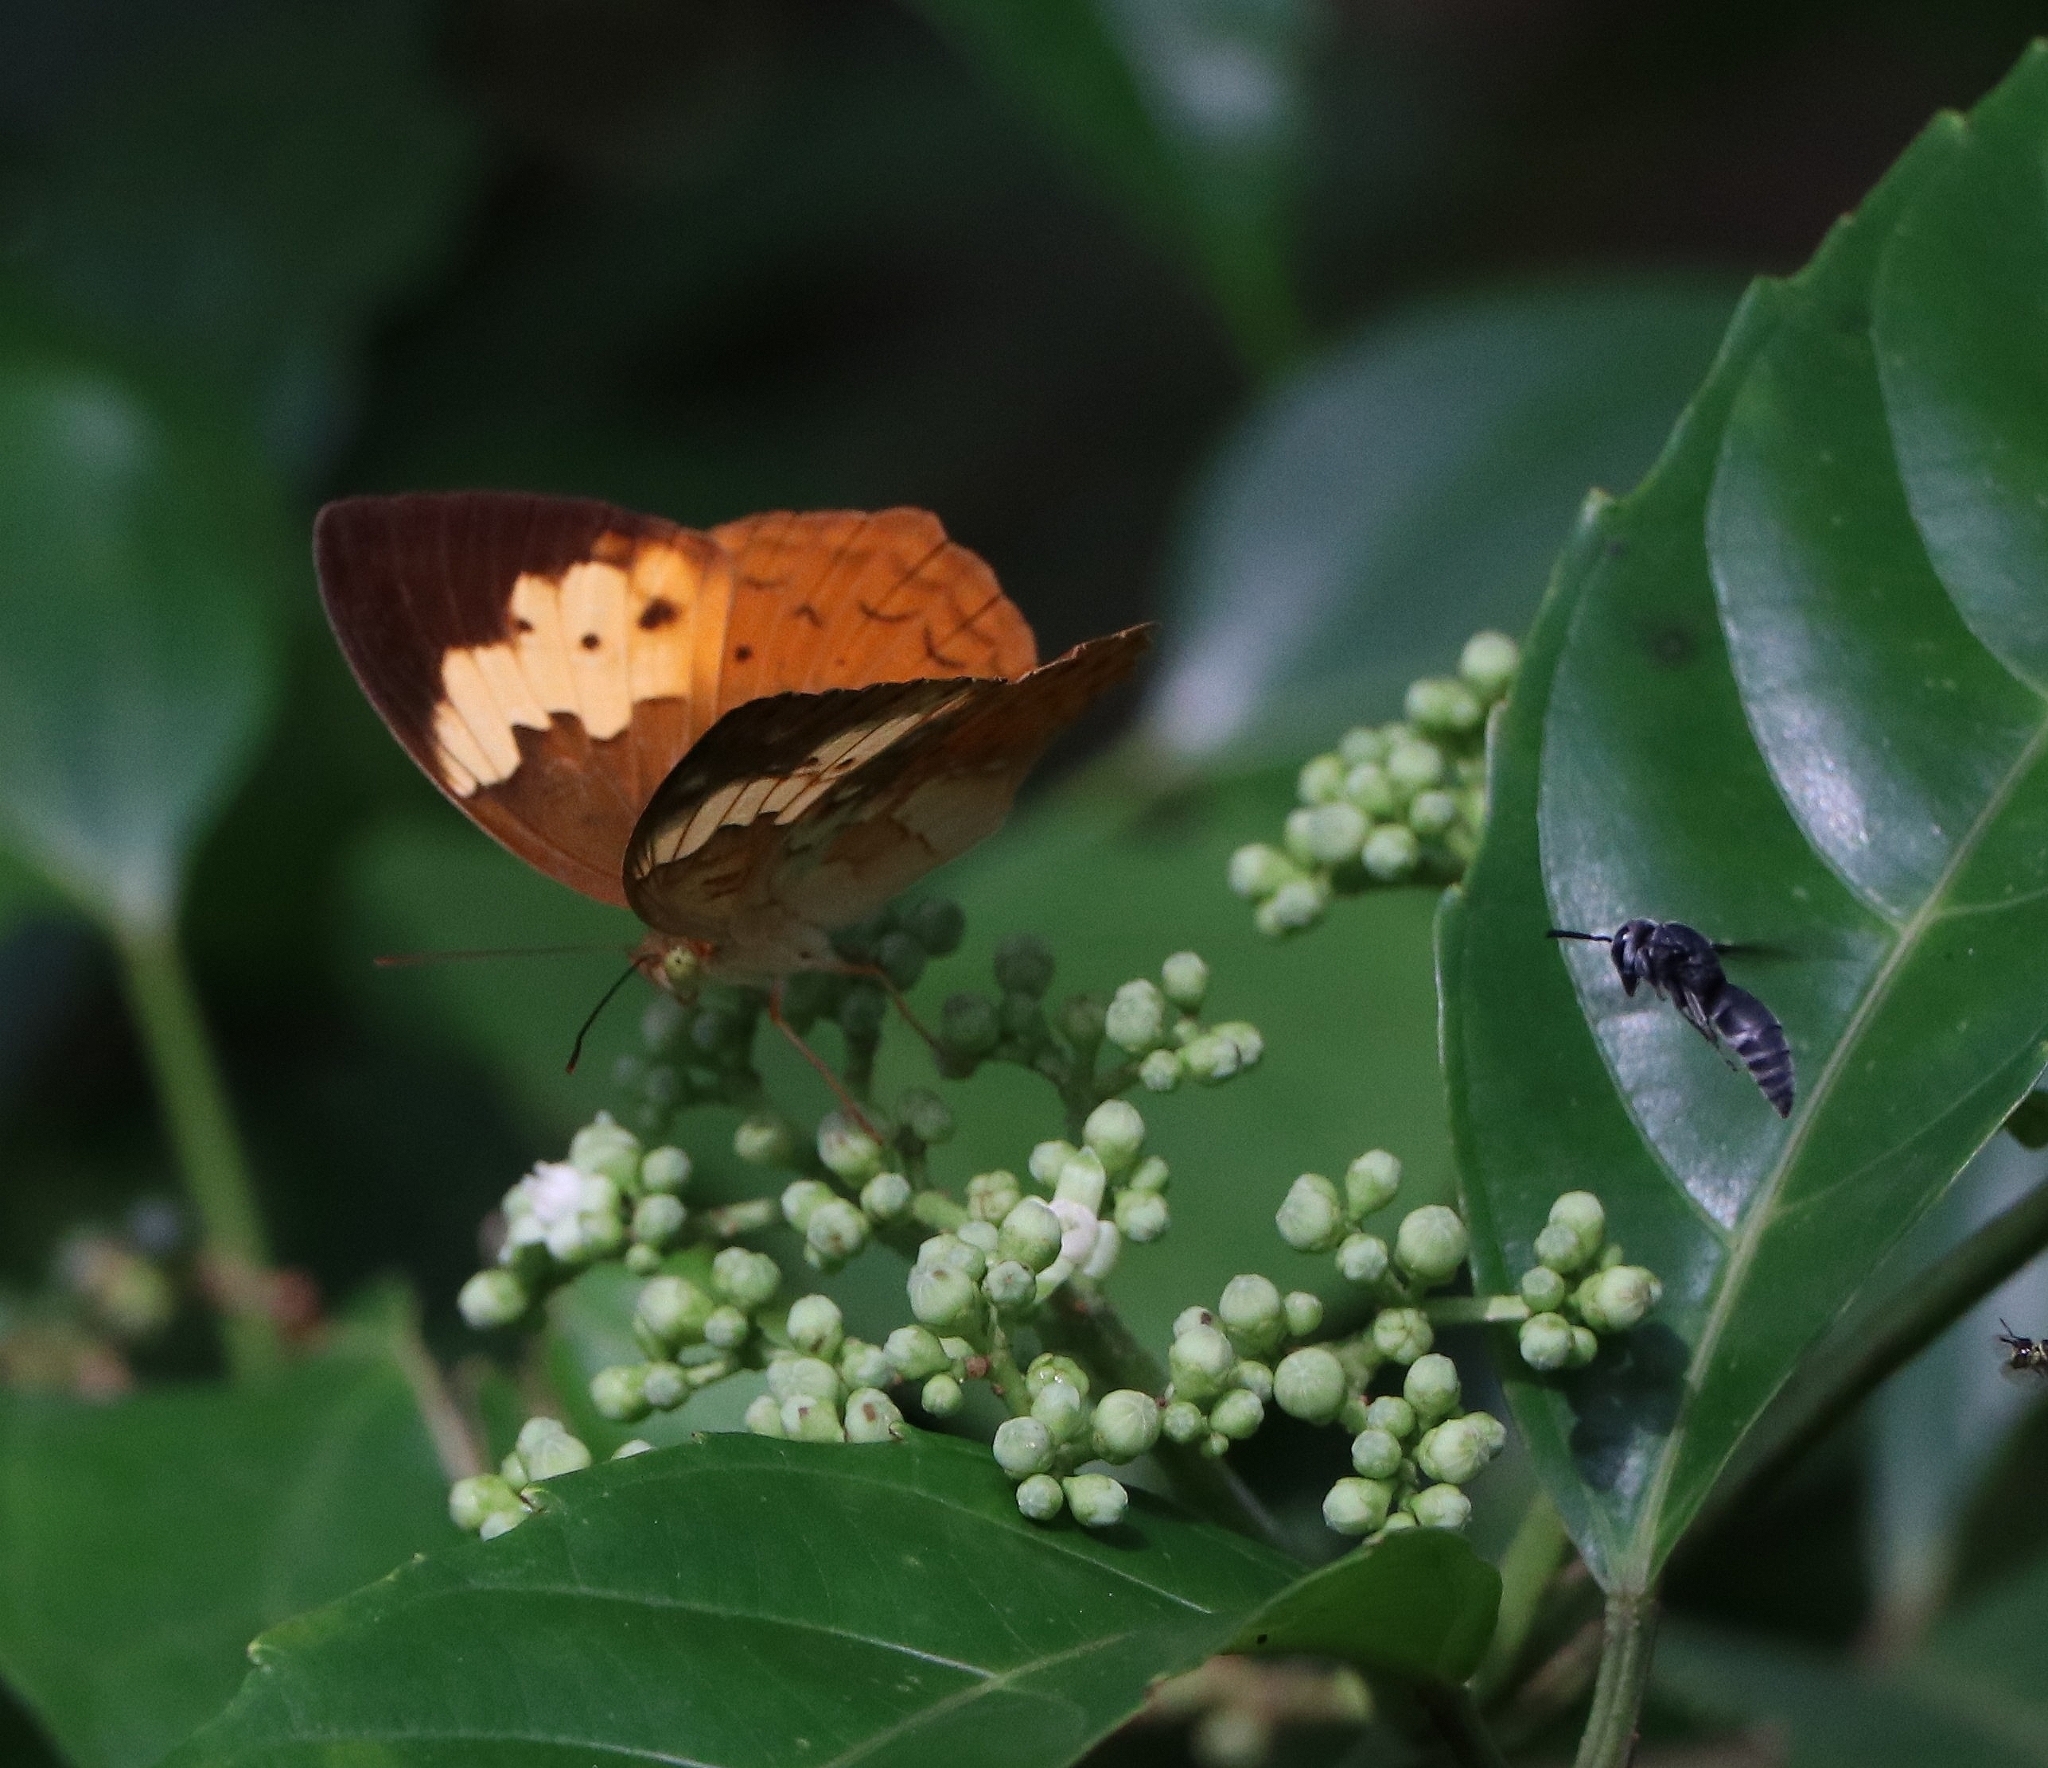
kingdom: Animalia
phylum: Arthropoda
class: Insecta
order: Lepidoptera
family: Nymphalidae
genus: Cupha
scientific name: Cupha erymanthis
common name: Rustic
